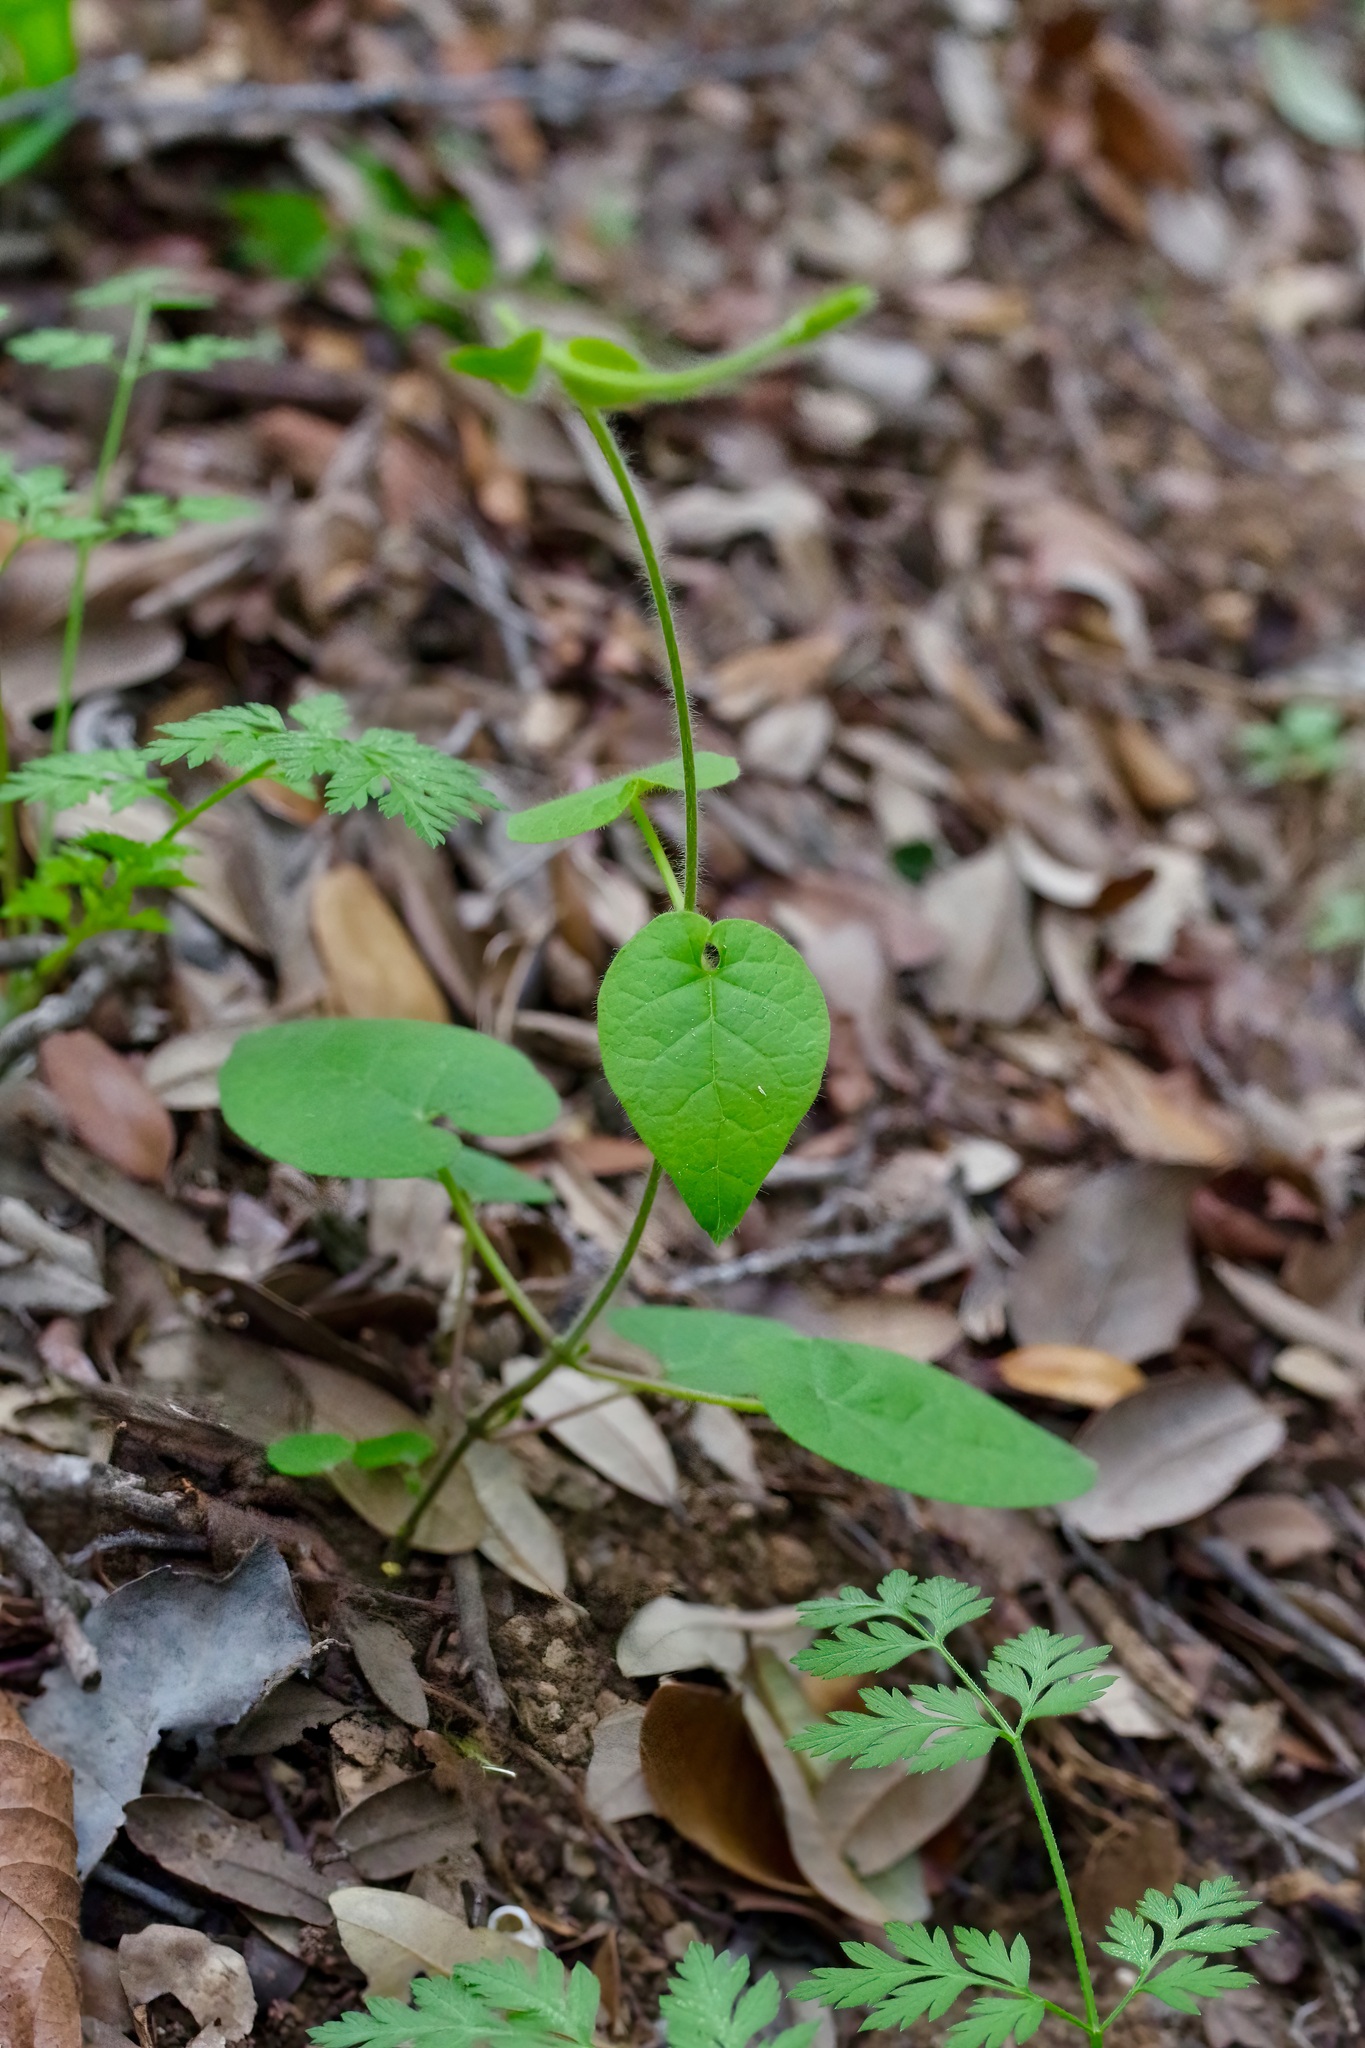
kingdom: Plantae
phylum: Tracheophyta
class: Magnoliopsida
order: Gentianales
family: Apocynaceae
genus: Dictyanthus
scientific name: Dictyanthus reticulatus
